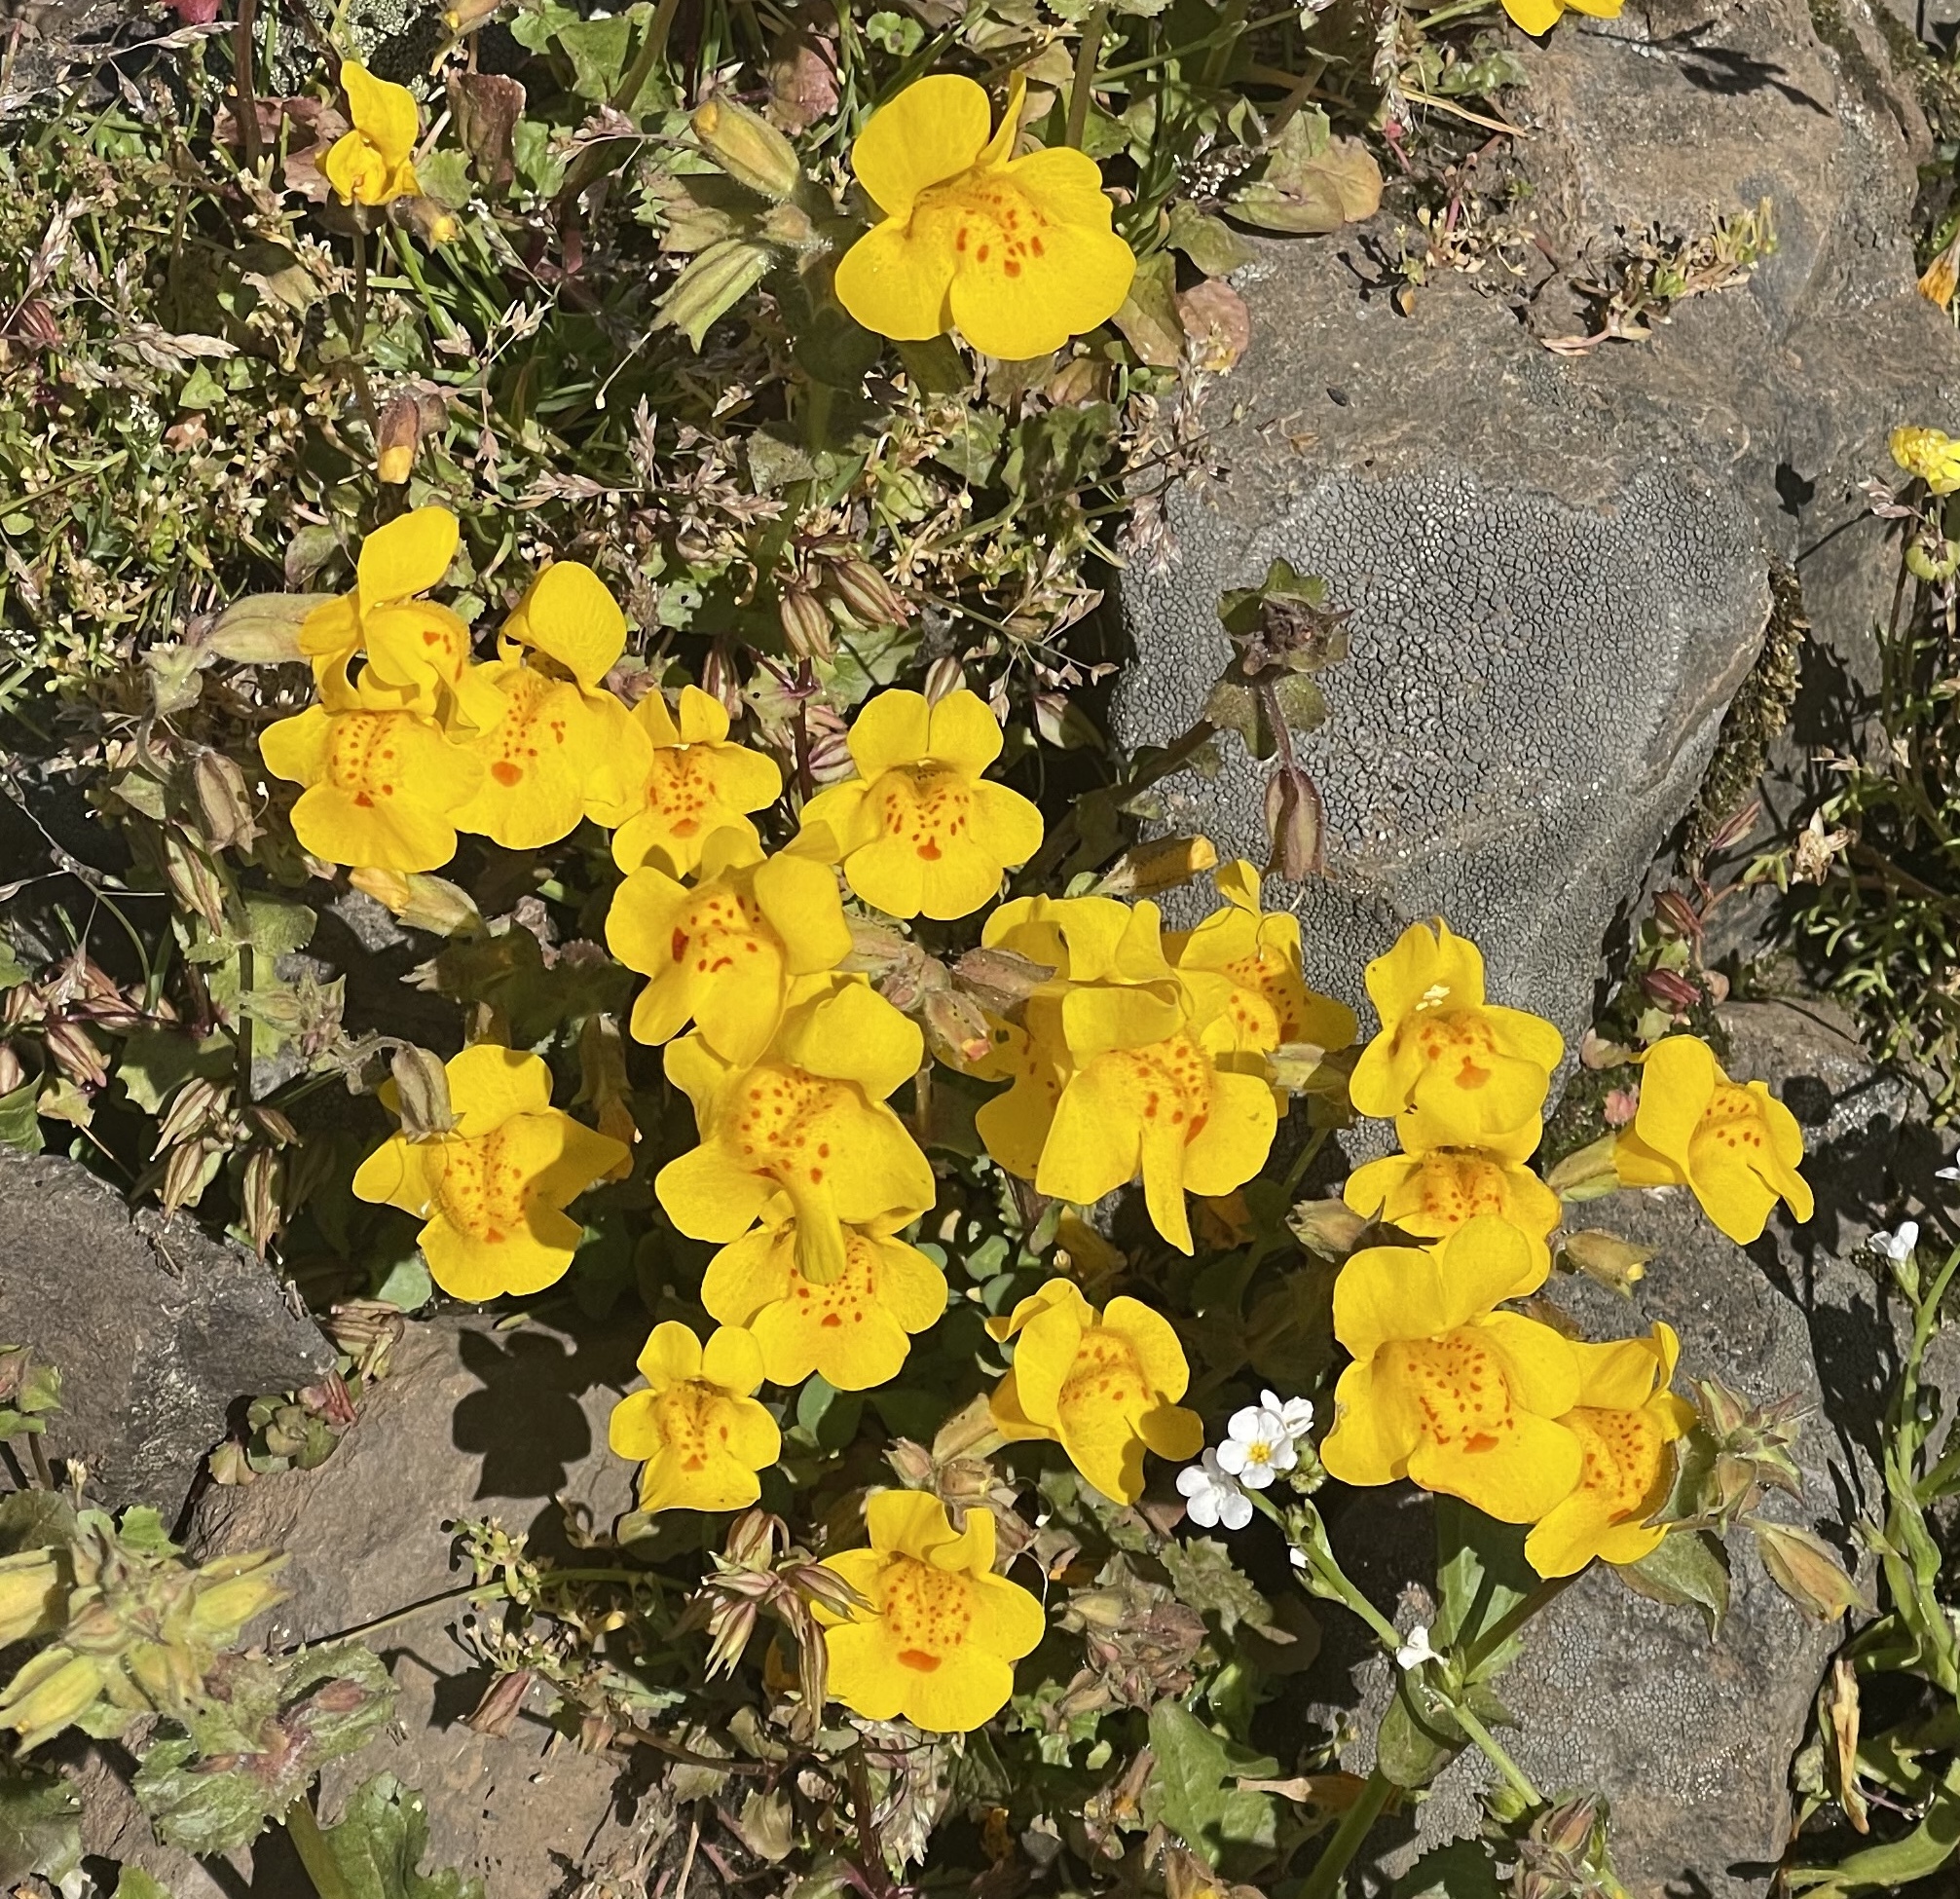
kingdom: Plantae
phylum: Tracheophyta
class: Magnoliopsida
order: Lamiales
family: Phrymaceae
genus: Erythranthe
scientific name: Erythranthe guttata
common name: Monkeyflower
